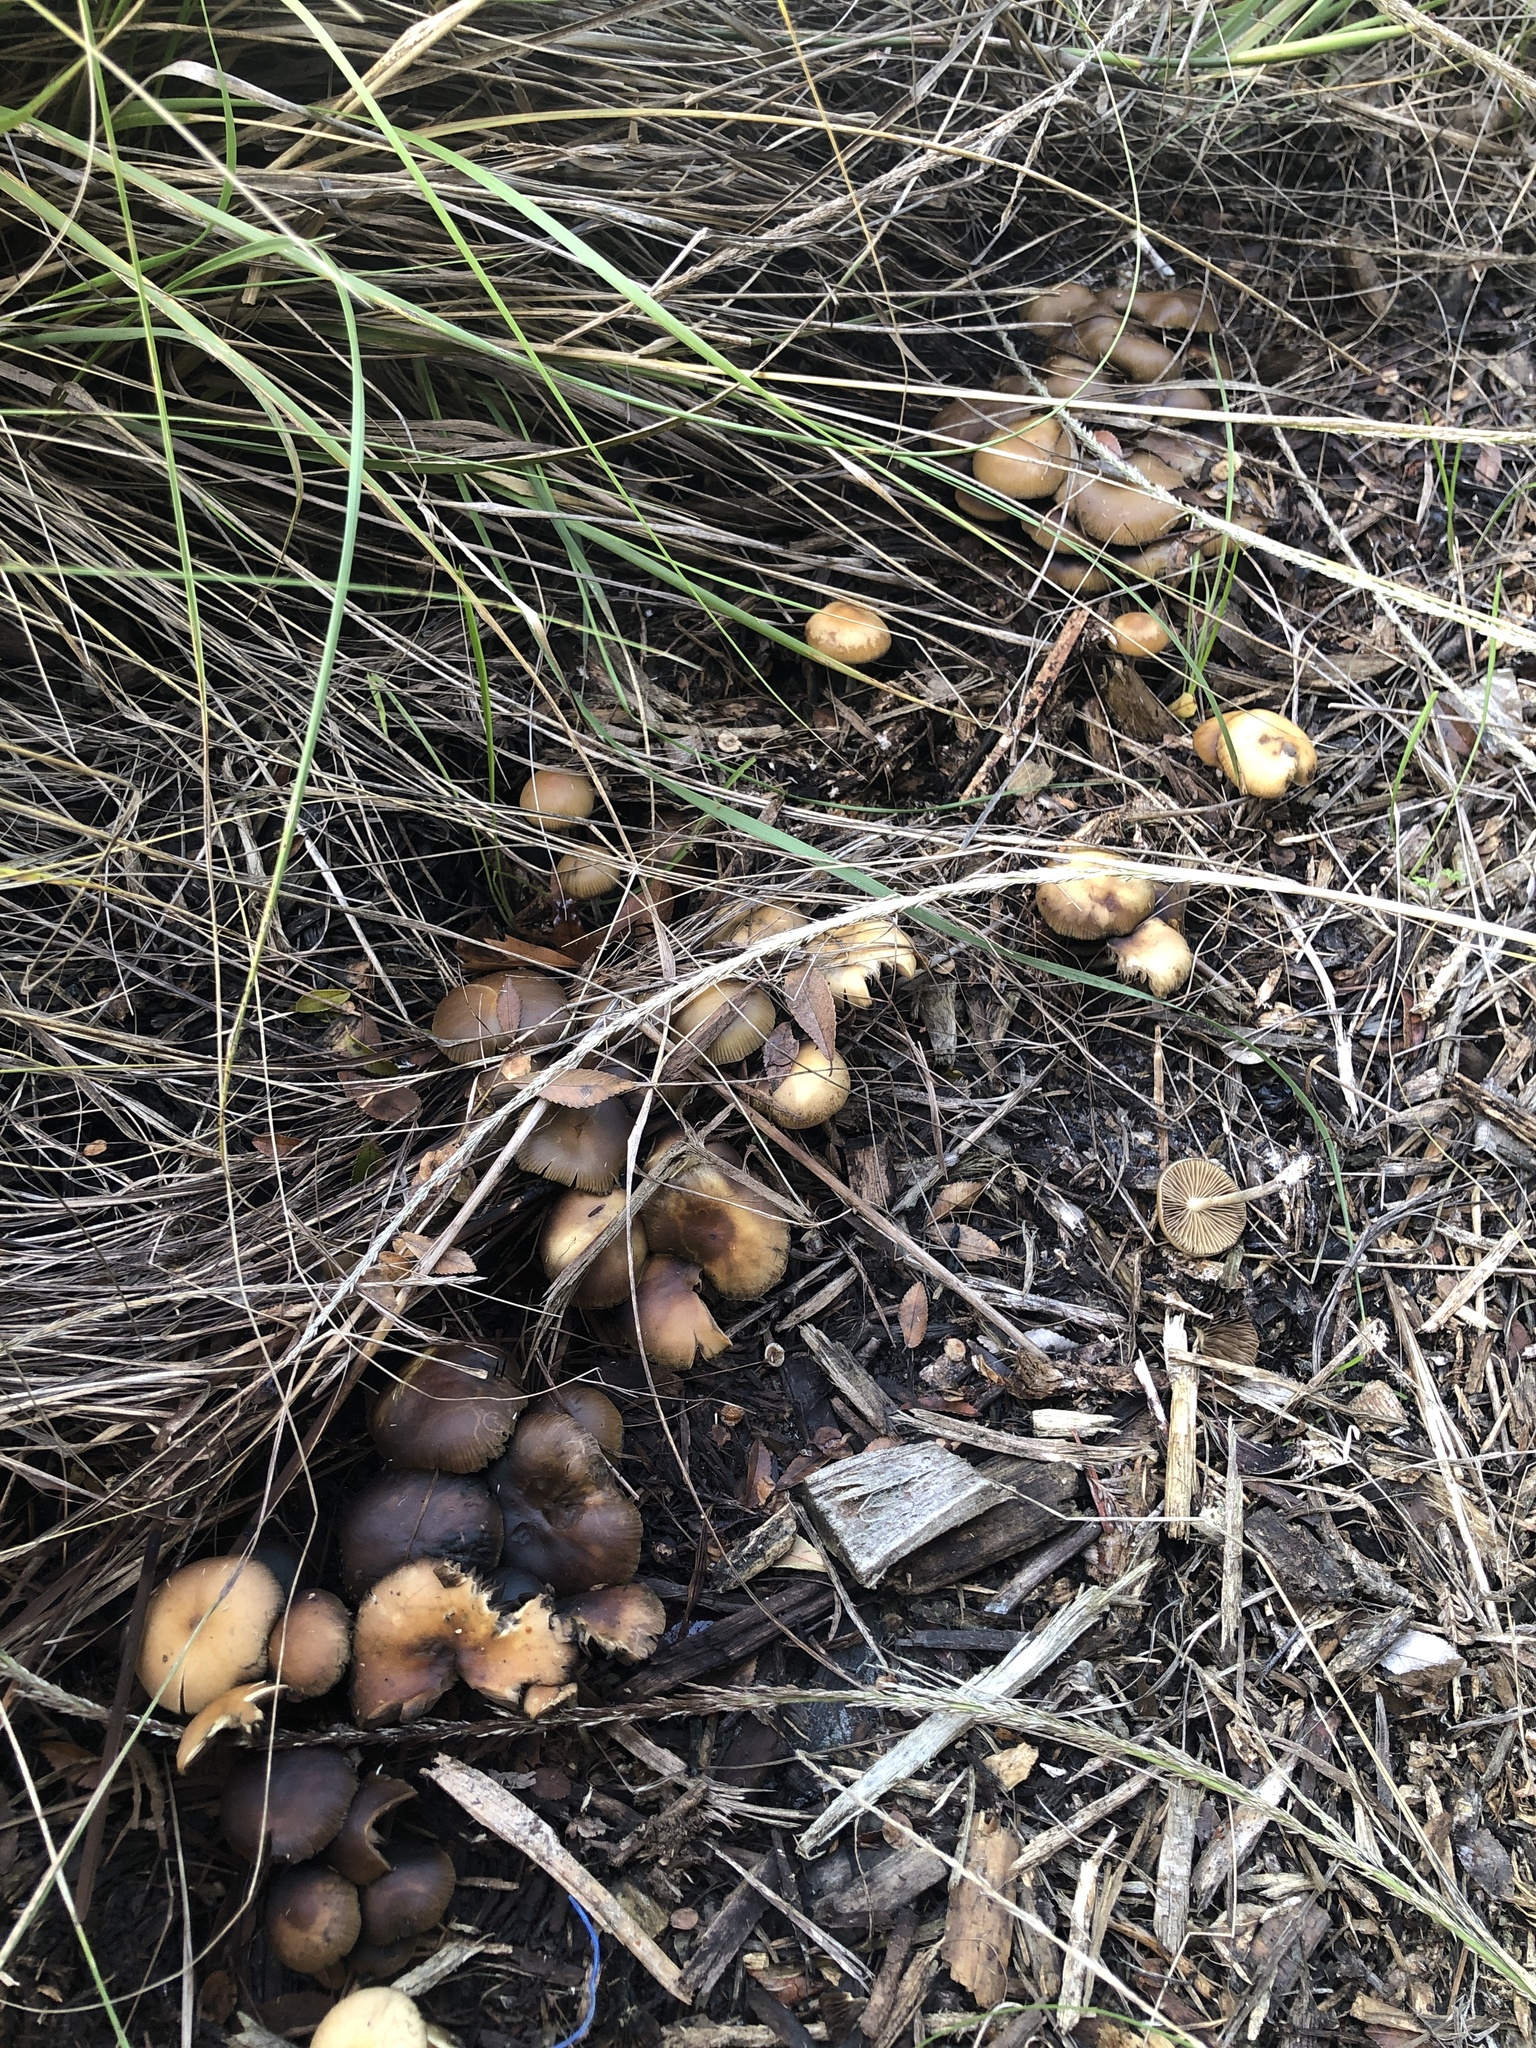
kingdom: Fungi
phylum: Basidiomycota
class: Agaricomycetes
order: Agaricales
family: Hymenogastraceae
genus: Psilocybe
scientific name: Psilocybe allenii
